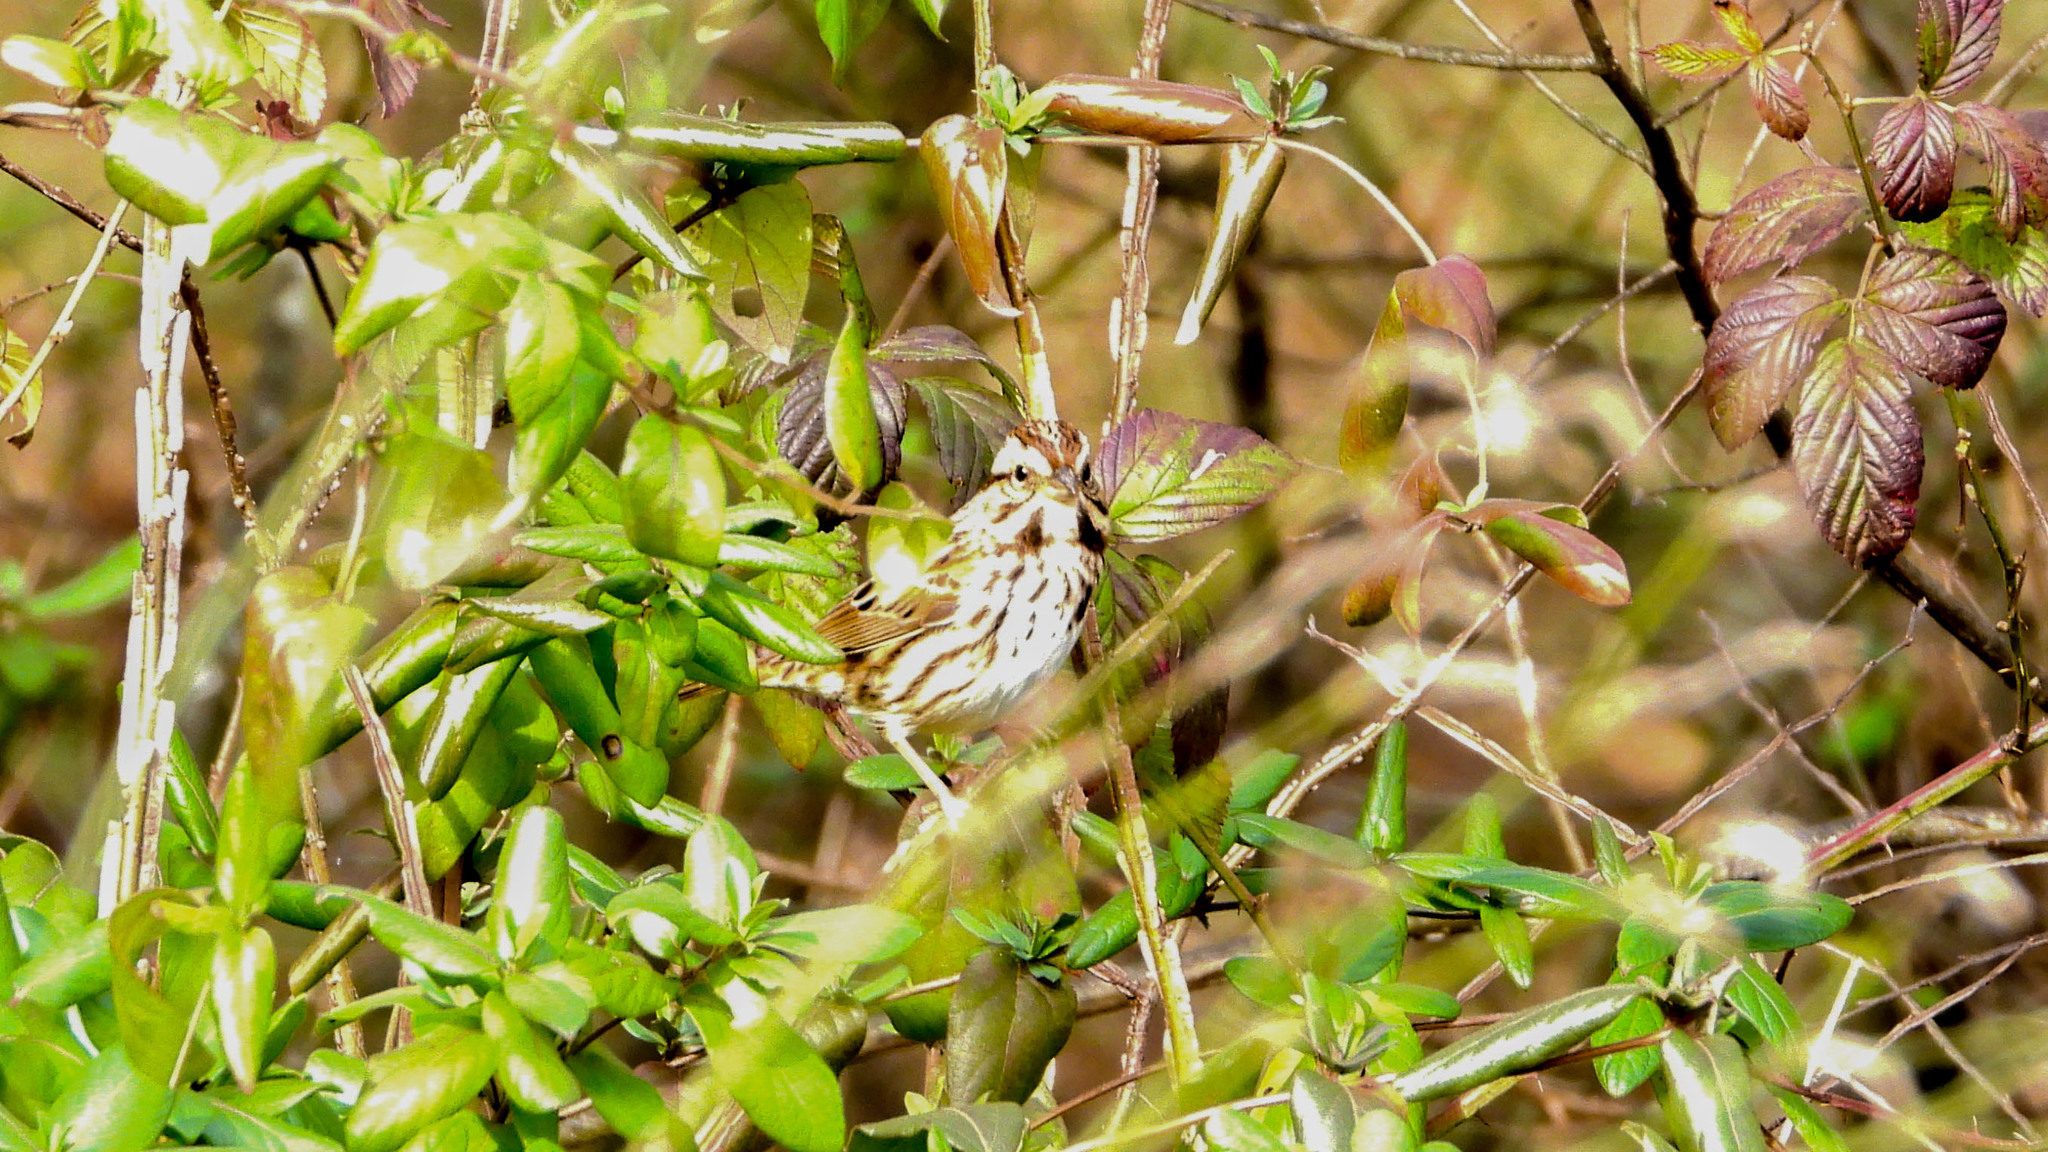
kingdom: Animalia
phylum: Chordata
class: Aves
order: Passeriformes
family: Passerellidae
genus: Melospiza
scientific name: Melospiza melodia
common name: Song sparrow
